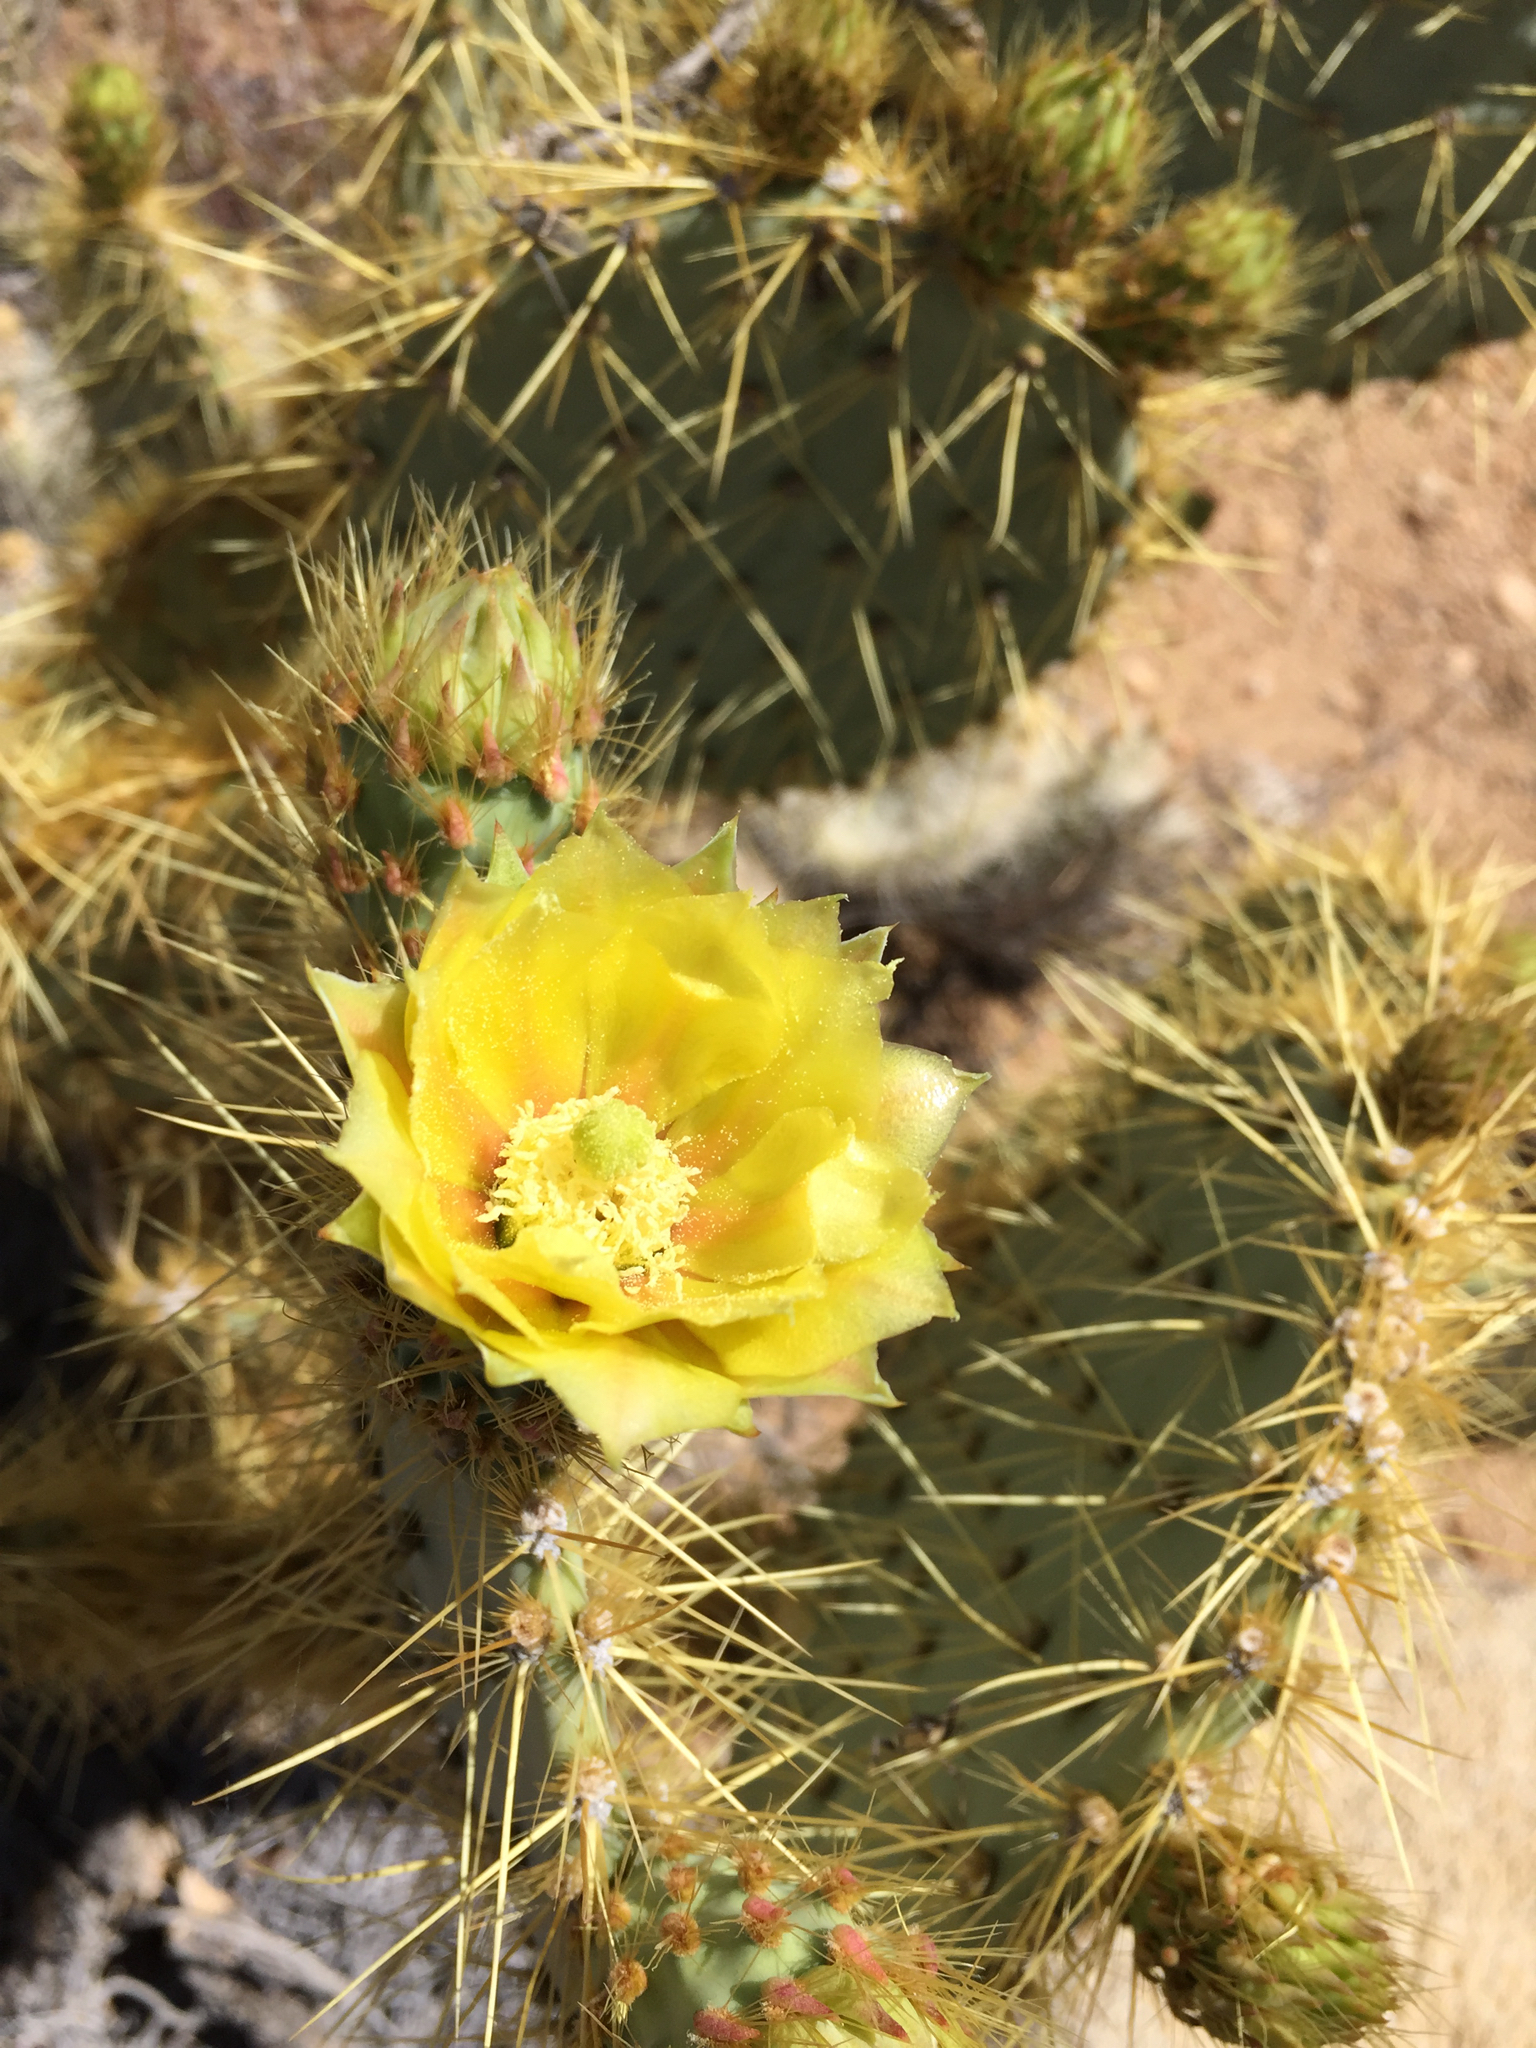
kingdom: Plantae
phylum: Tracheophyta
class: Magnoliopsida
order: Caryophyllales
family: Cactaceae
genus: Opuntia
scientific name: Opuntia chlorotica
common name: Dollar-joint prickly-pear
